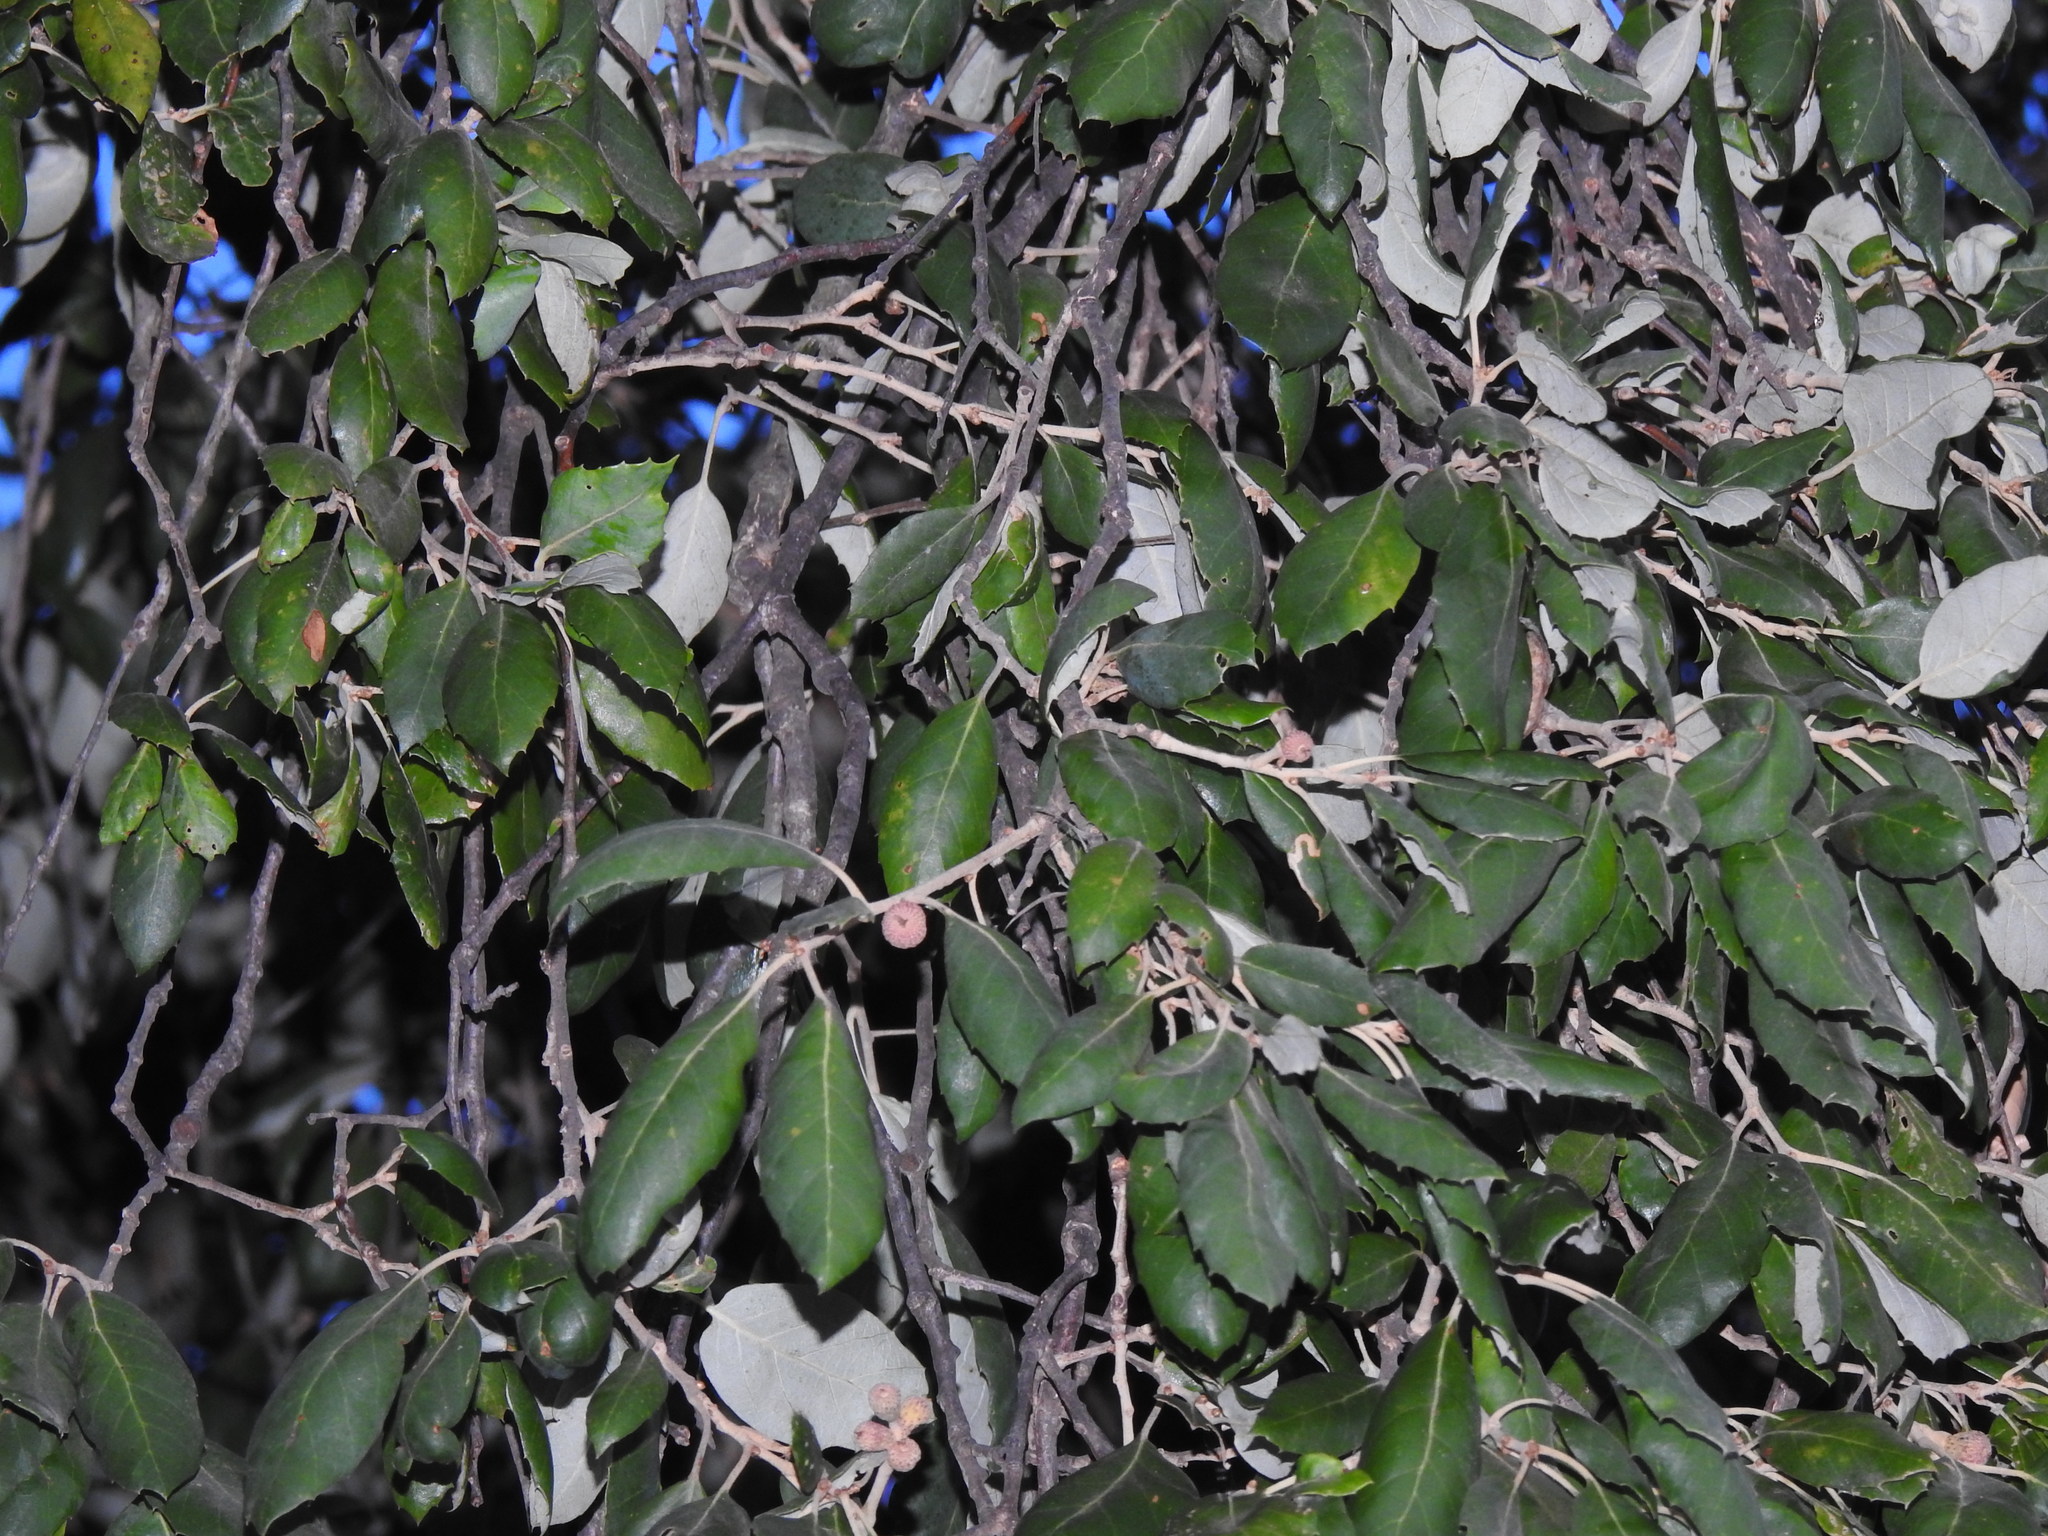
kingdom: Plantae
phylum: Tracheophyta
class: Magnoliopsida
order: Fagales
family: Fagaceae
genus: Quercus
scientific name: Quercus suber
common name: Cork oak
